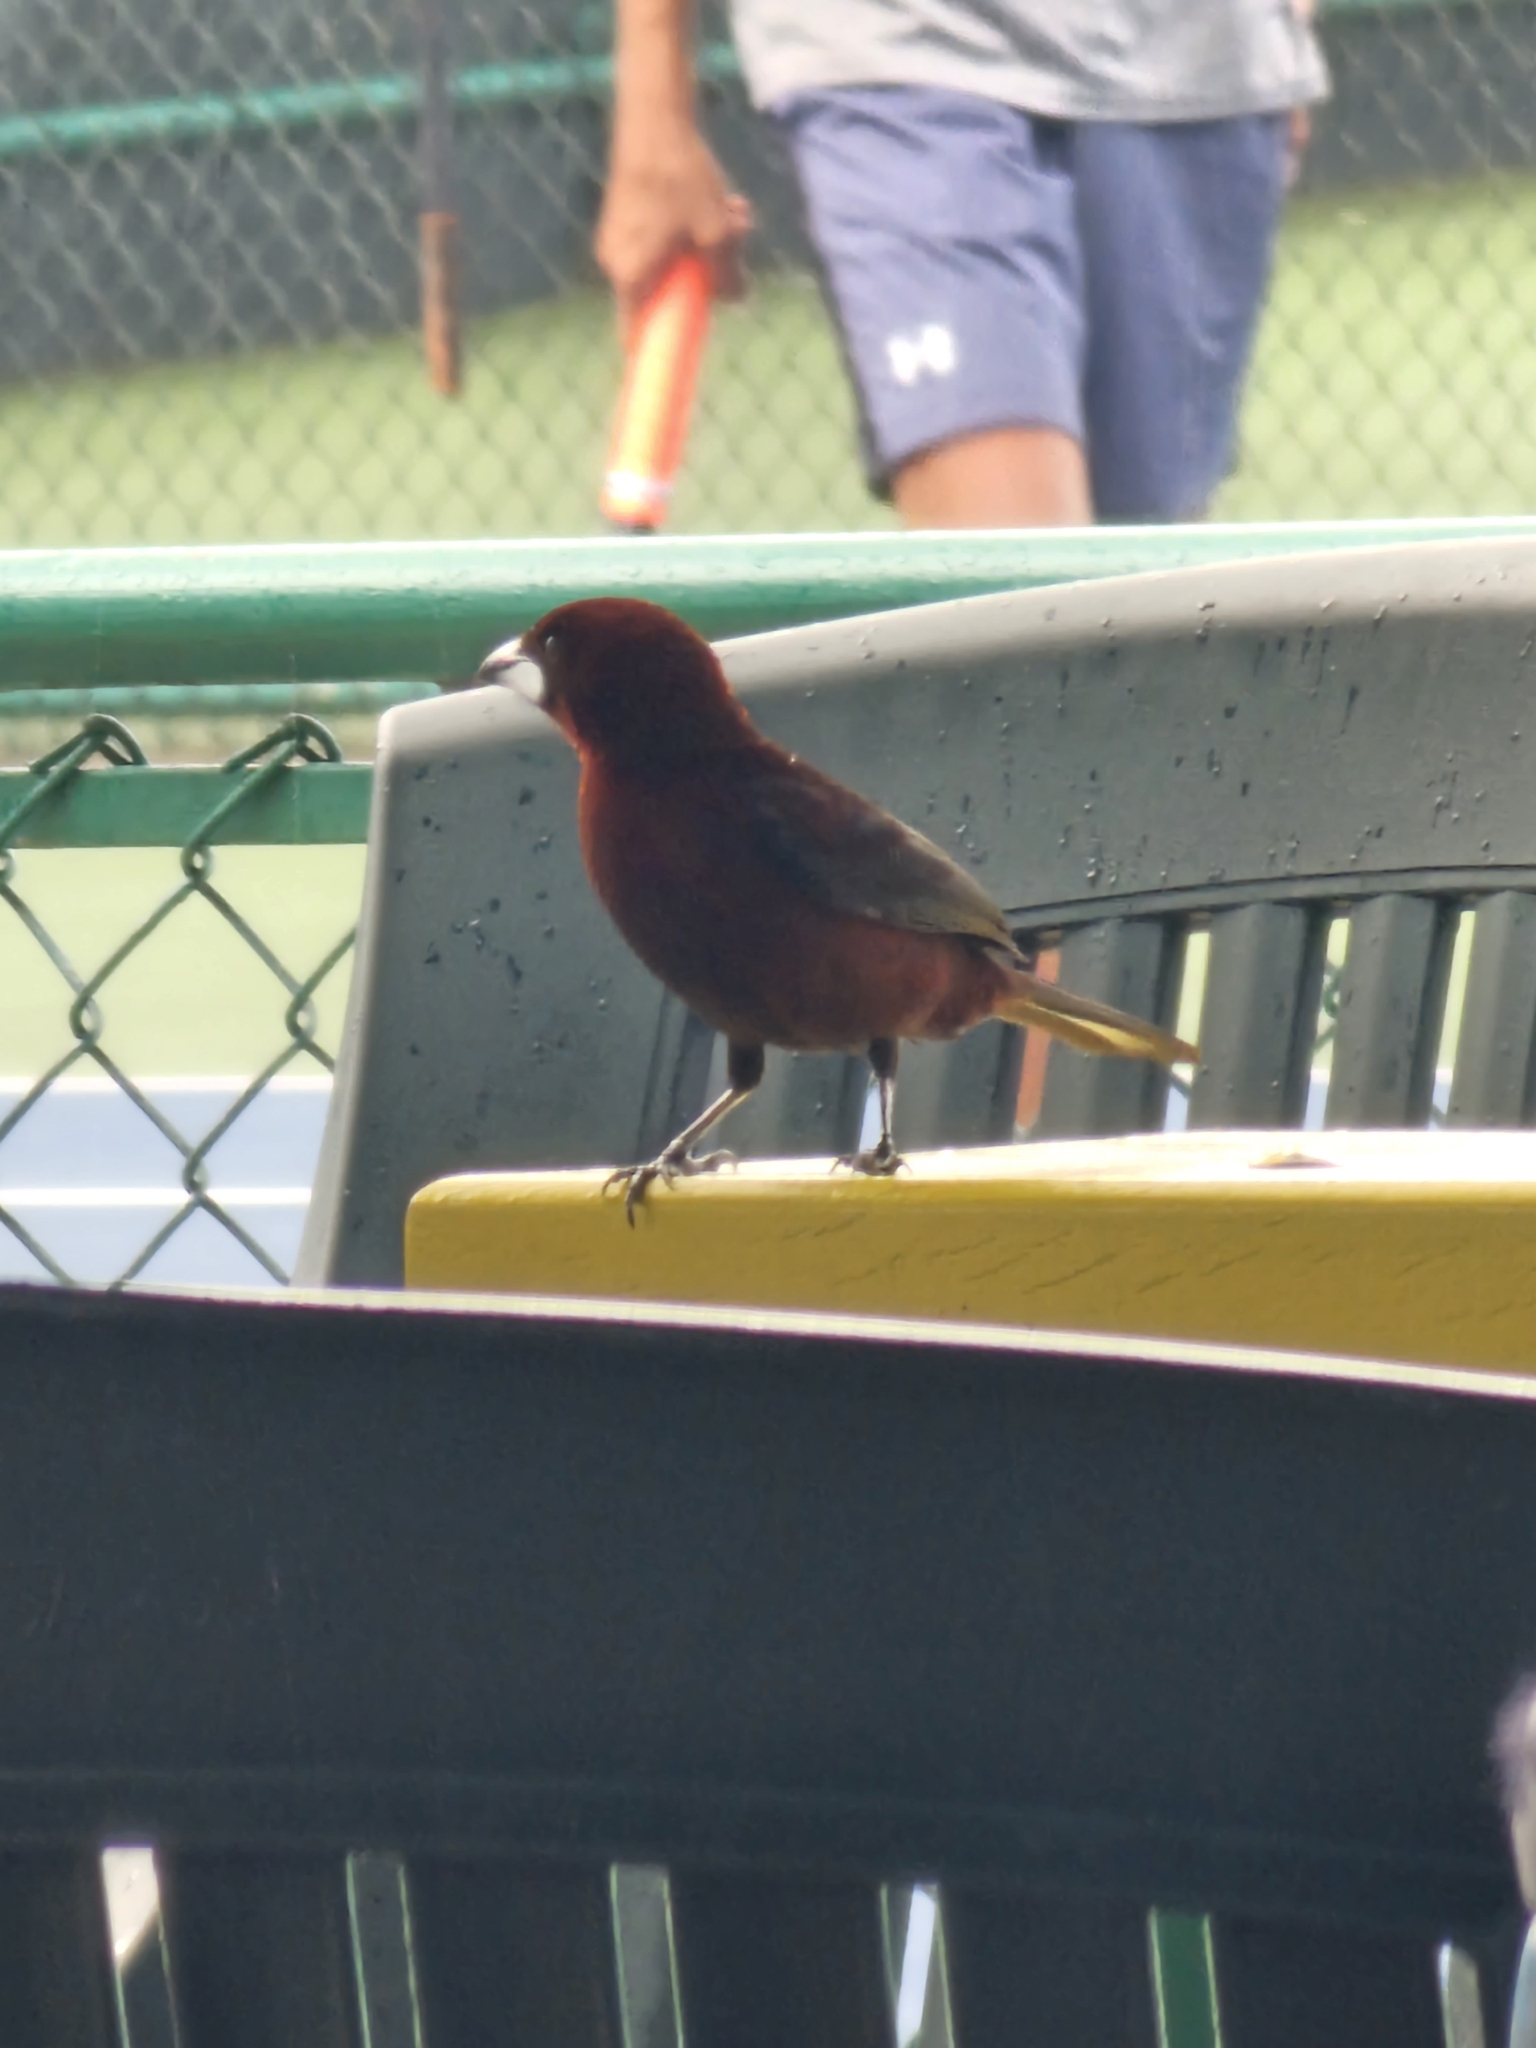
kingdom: Animalia
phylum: Chordata
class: Aves
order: Passeriformes
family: Thraupidae
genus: Ramphocelus
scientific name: Ramphocelus carbo
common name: Silver-beaked tanager
